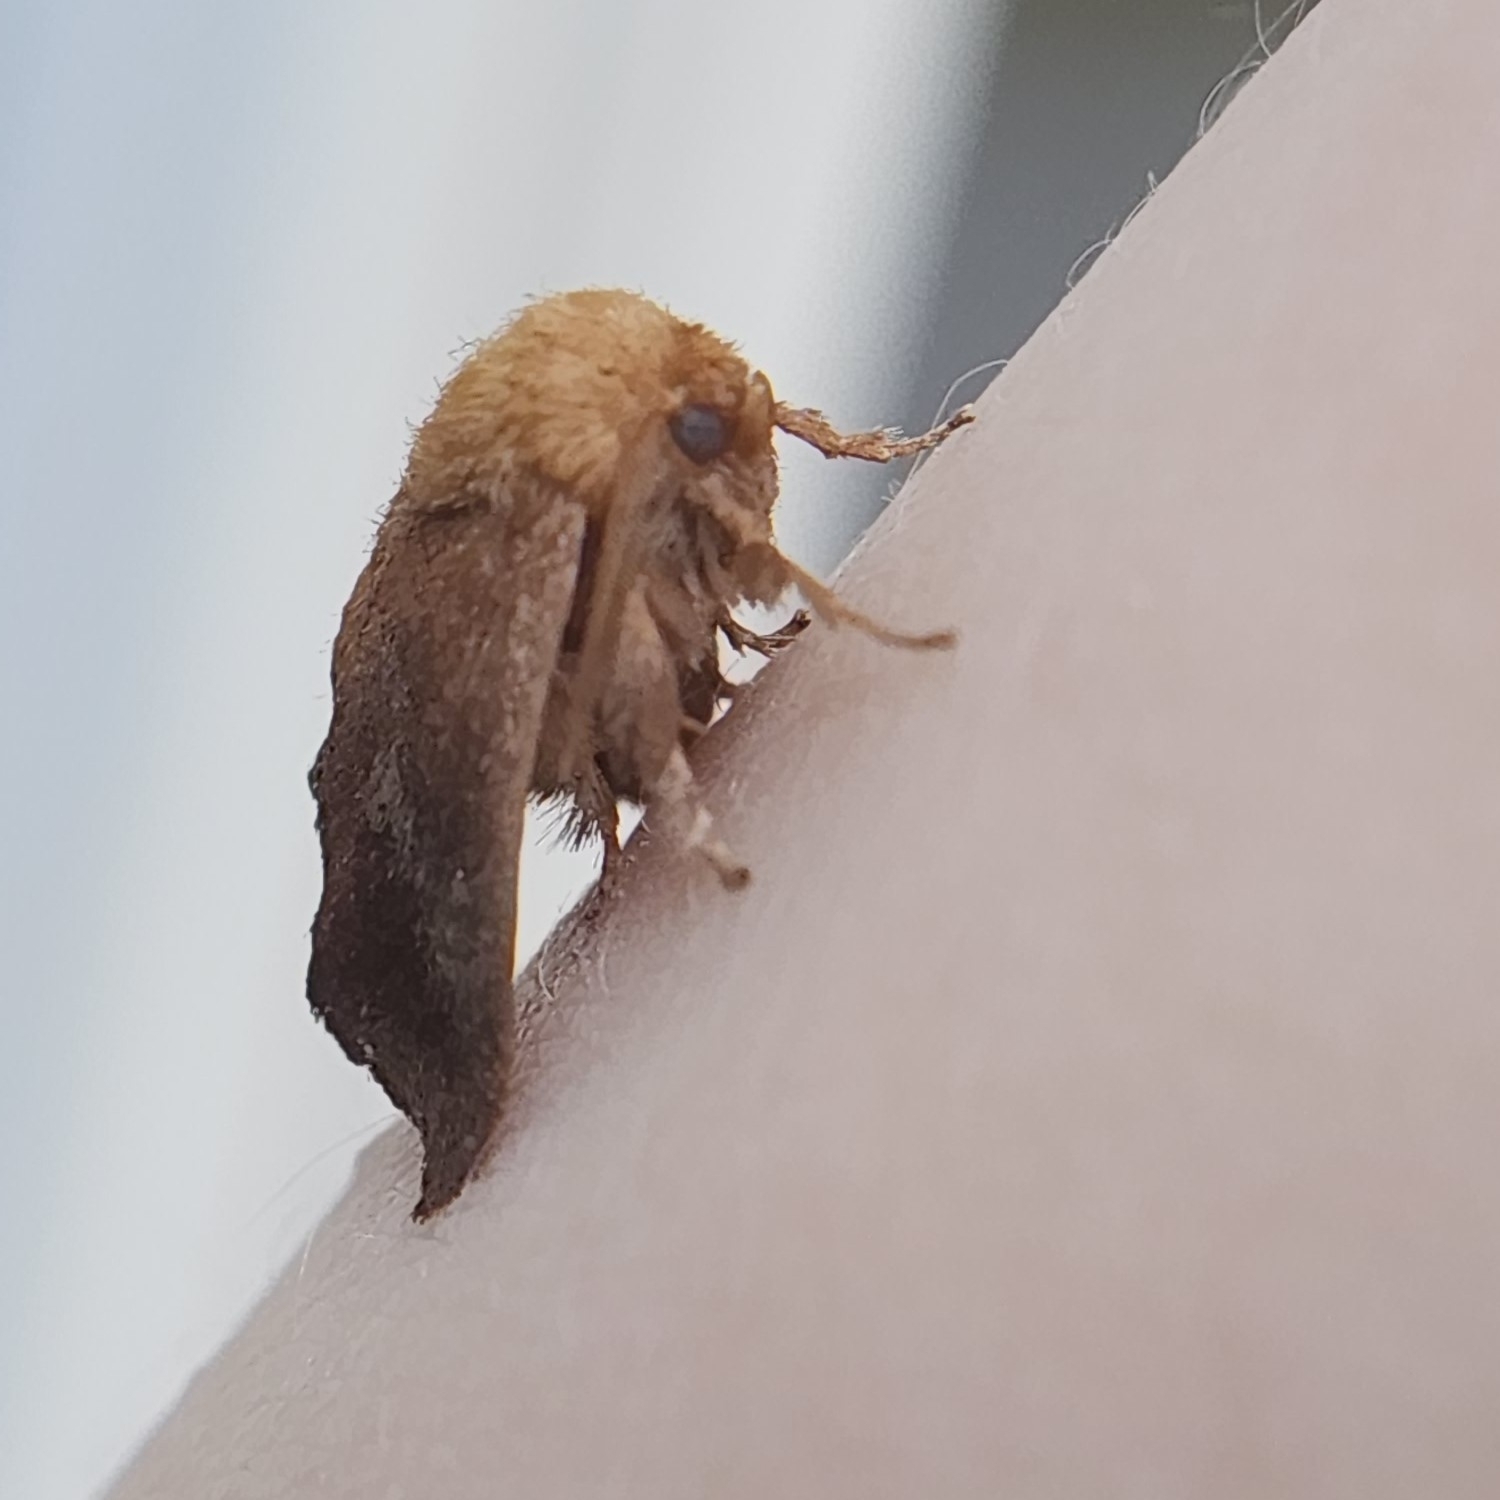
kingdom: Animalia
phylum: Arthropoda
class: Insecta
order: Lepidoptera
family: Limacodidae
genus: Isa
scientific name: Isa textula
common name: Crowned slug moth
